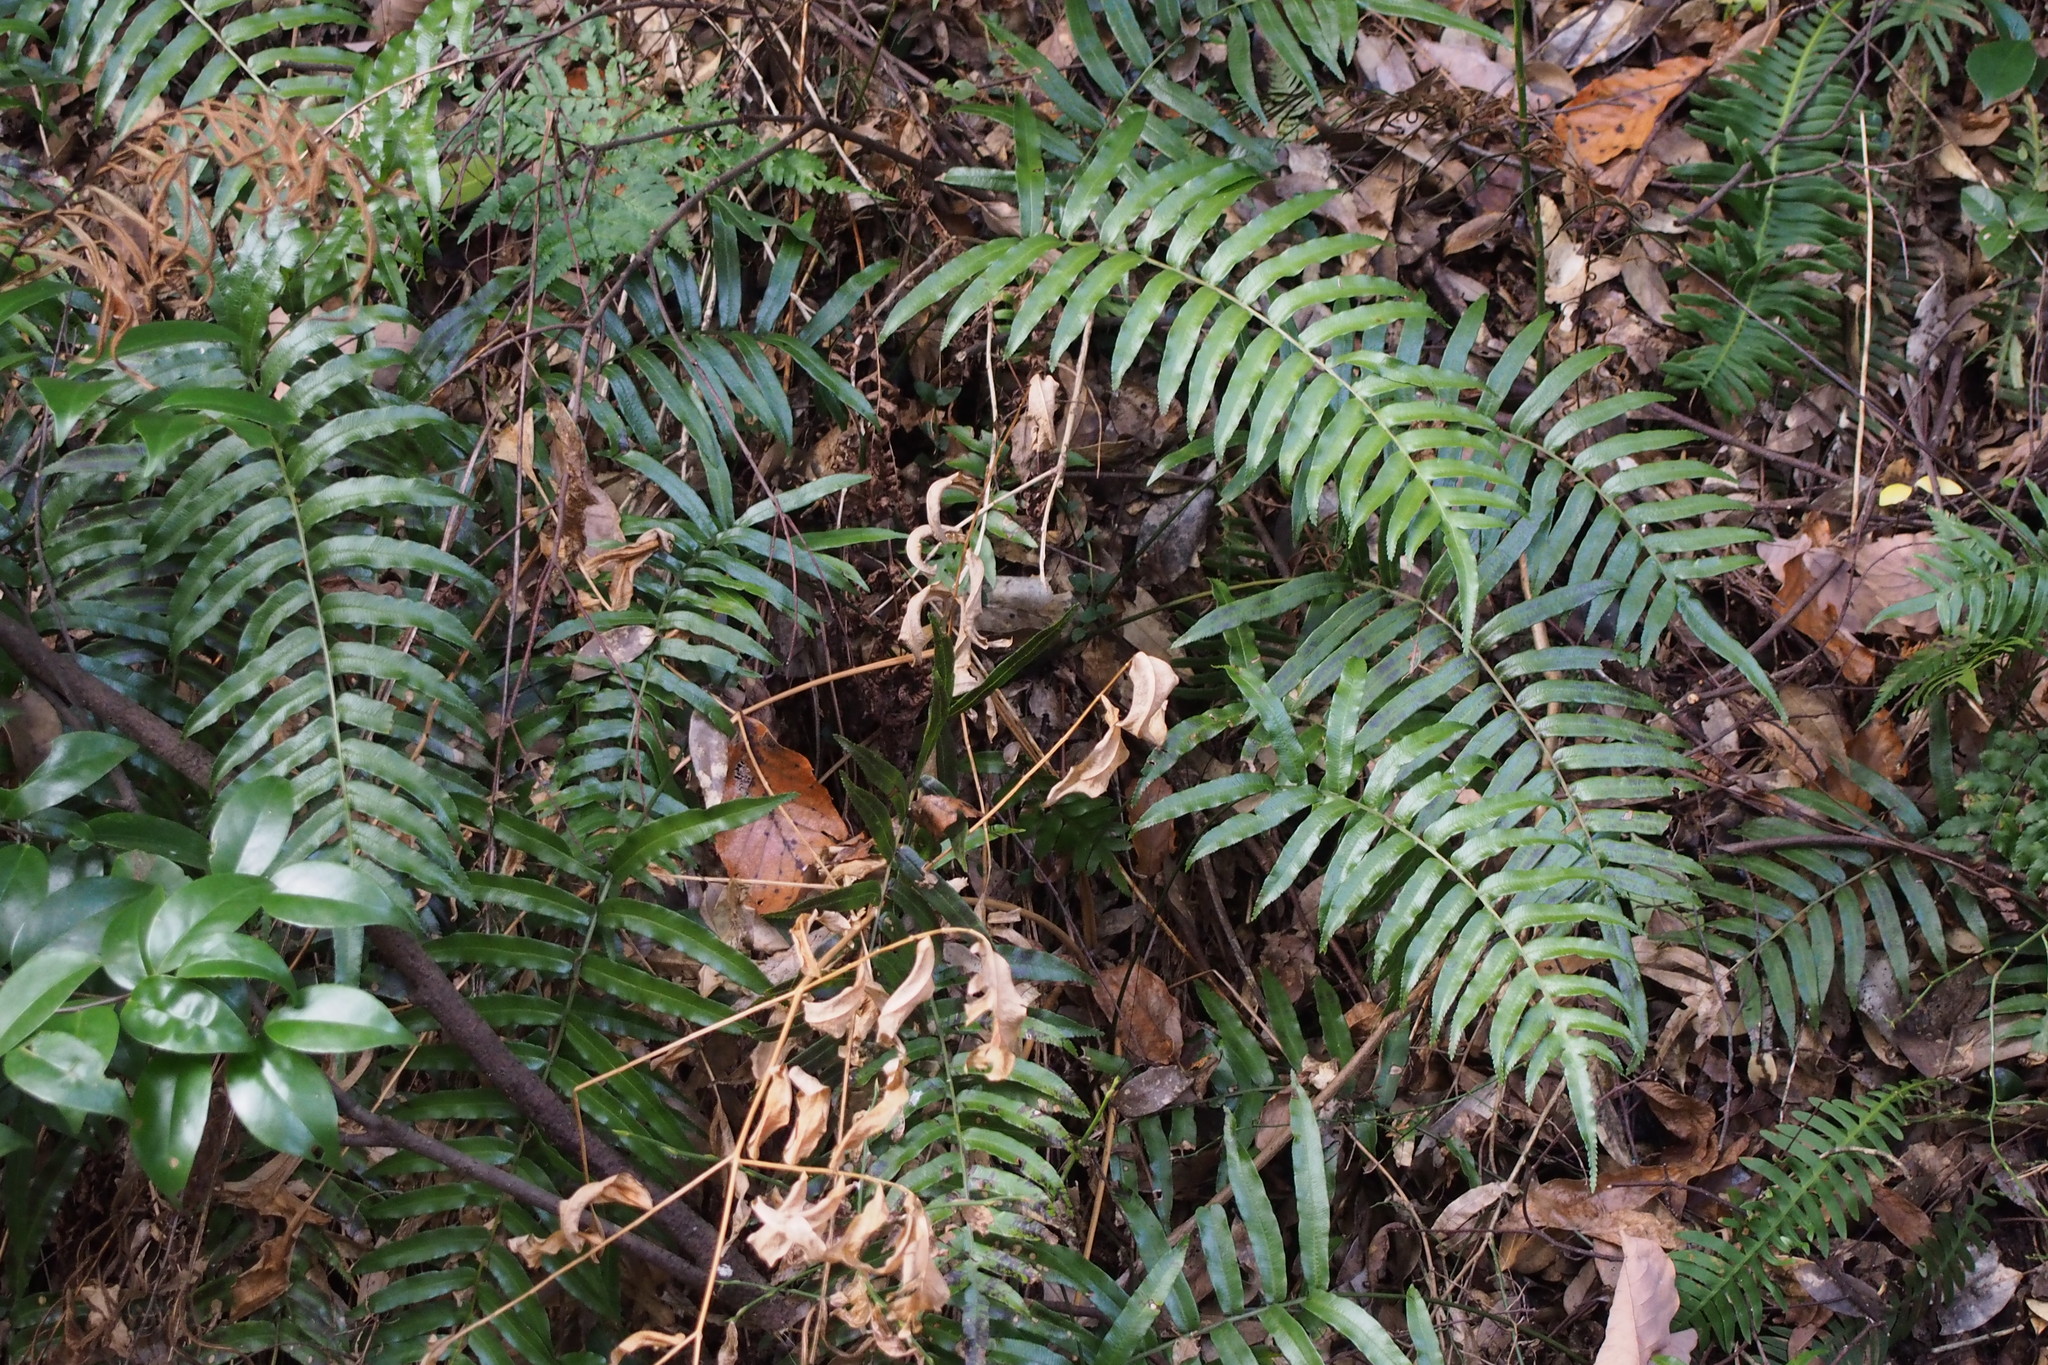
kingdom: Plantae
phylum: Tracheophyta
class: Polypodiopsida
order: Cyatheales
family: Plagiogyriaceae
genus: Plagiogyria
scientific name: Plagiogyria japonica
